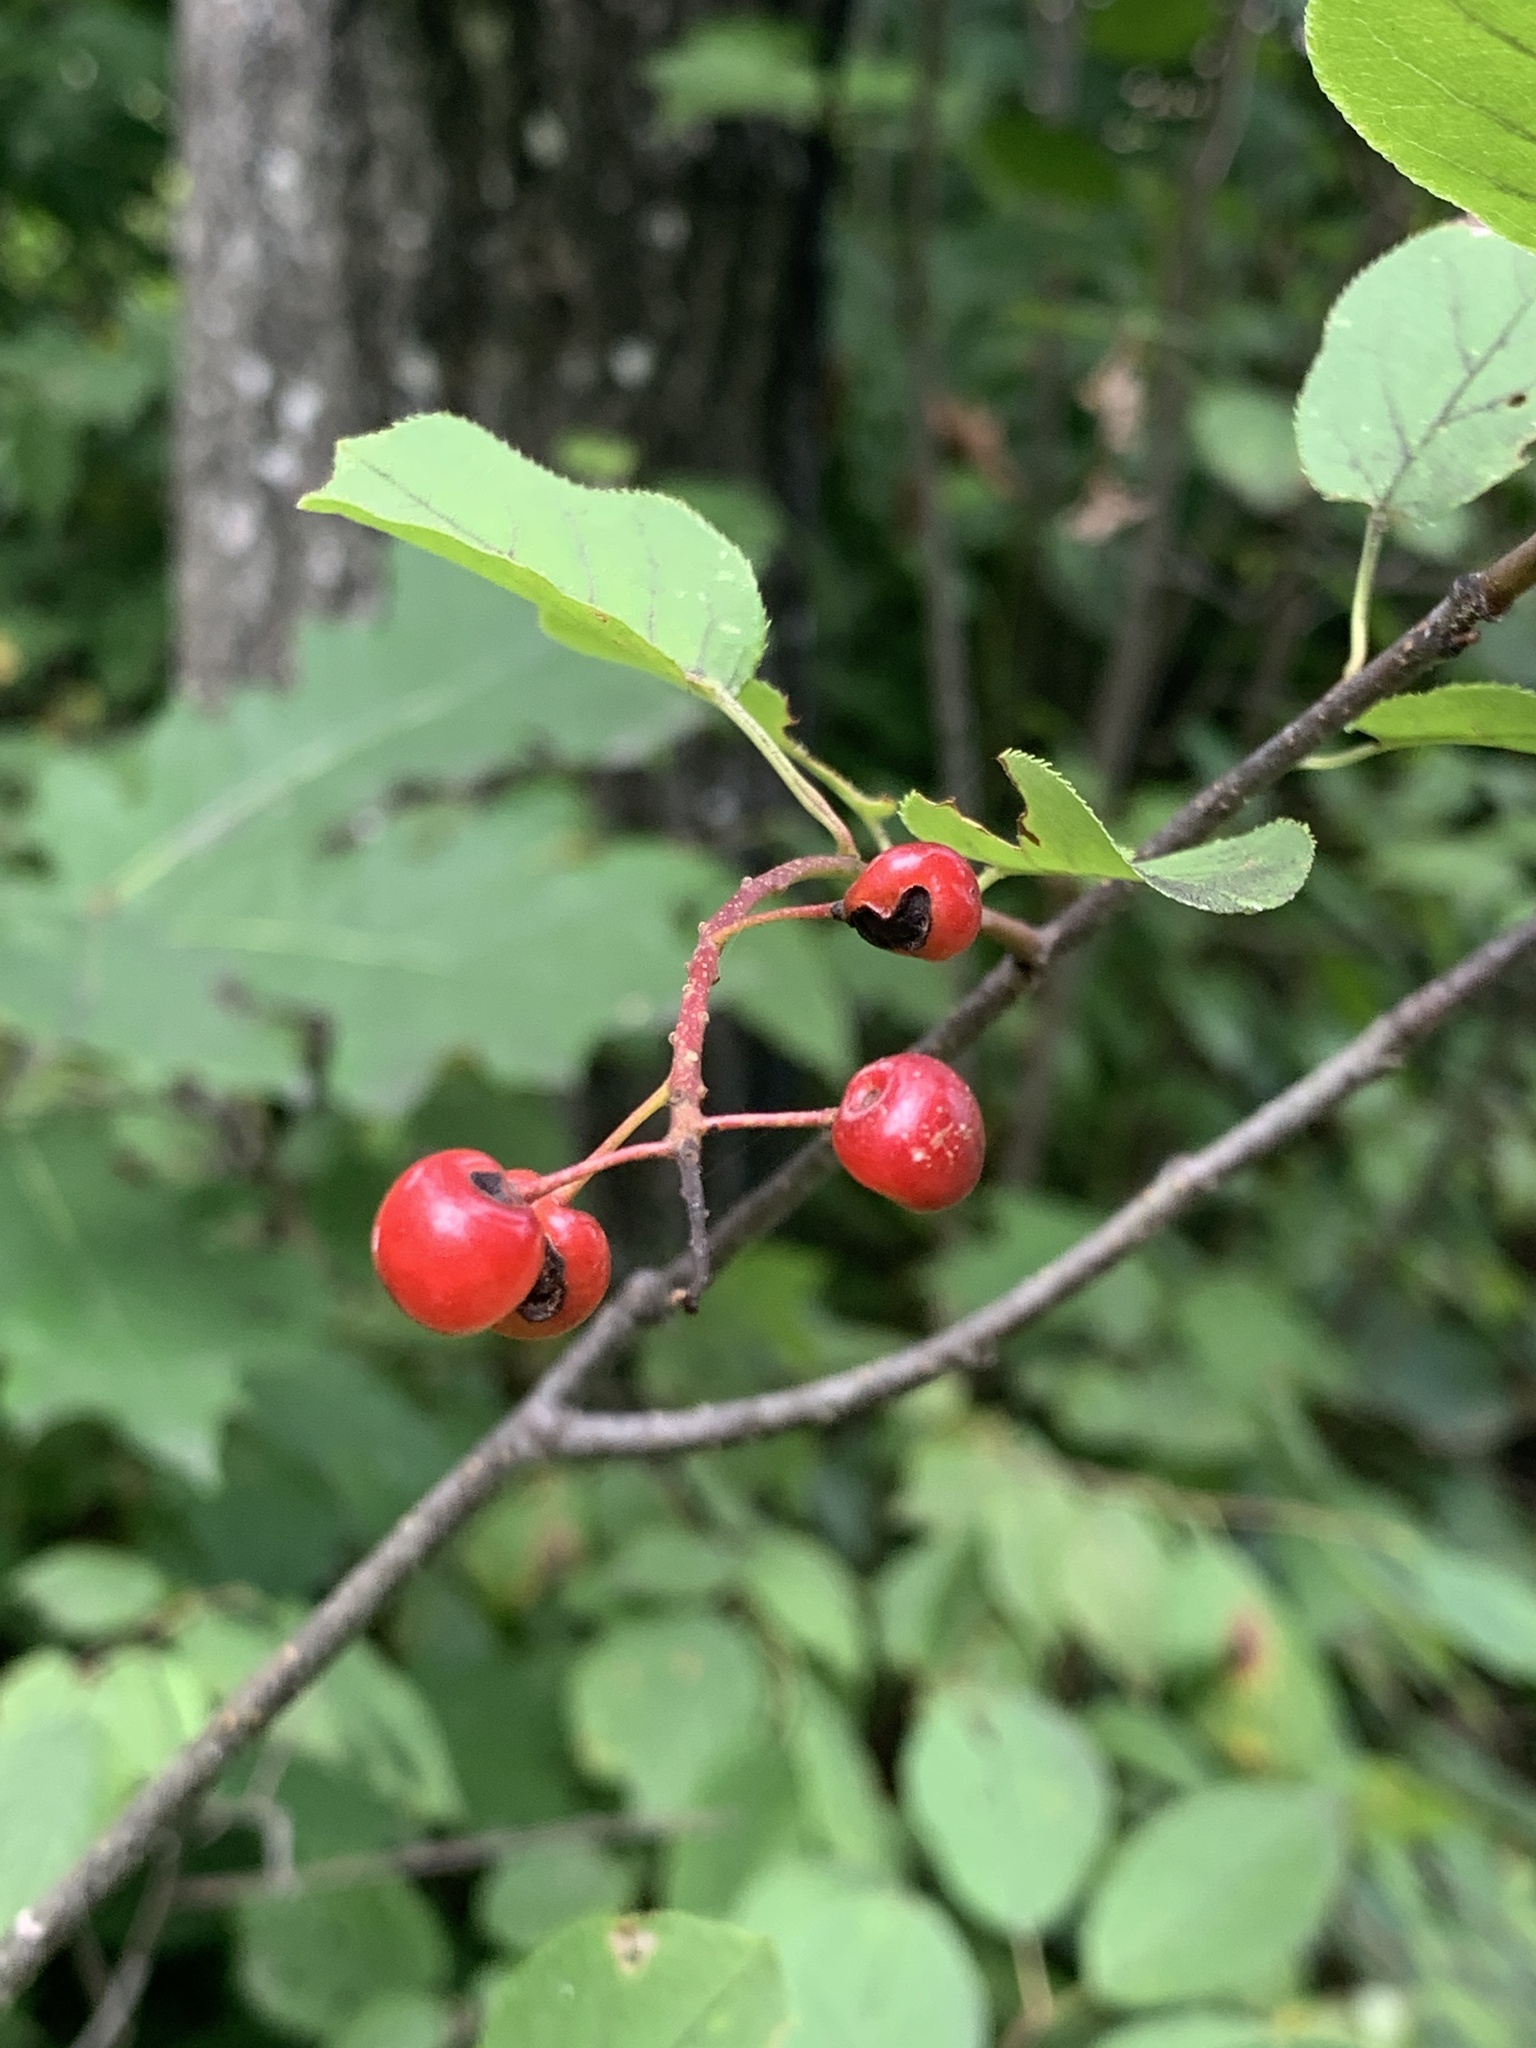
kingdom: Plantae
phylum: Tracheophyta
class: Magnoliopsida
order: Rosales
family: Rosaceae
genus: Prunus
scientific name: Prunus virginiana
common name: Chokecherry
